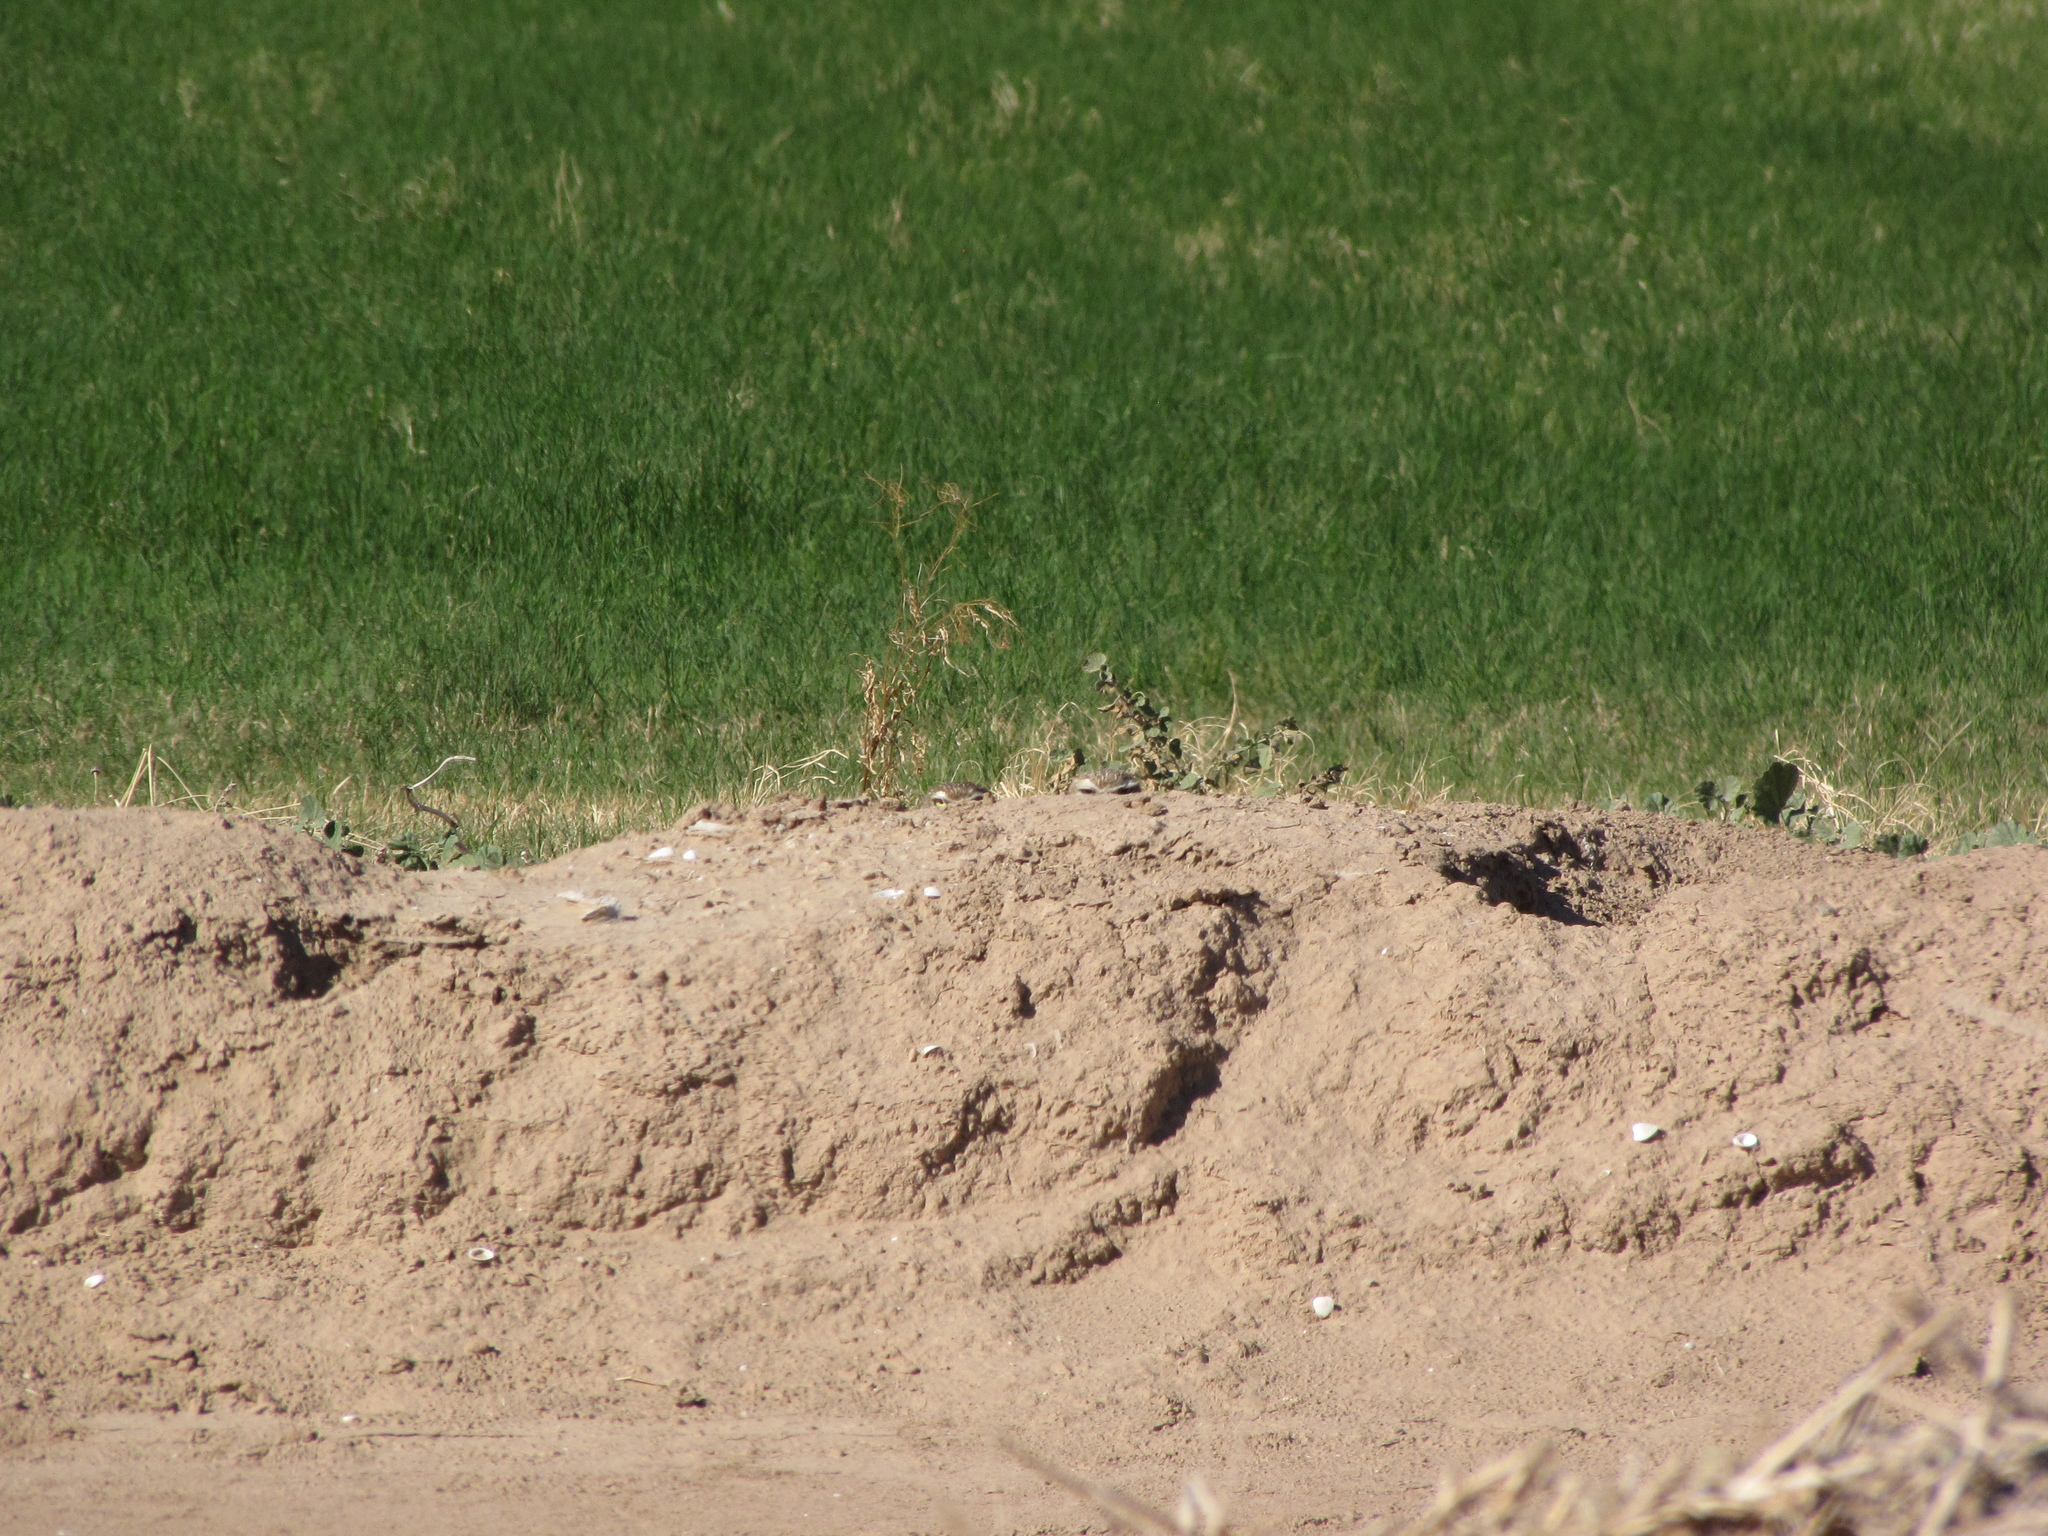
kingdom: Animalia
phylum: Chordata
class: Aves
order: Strigiformes
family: Strigidae
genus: Athene
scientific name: Athene cunicularia
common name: Burrowing owl
